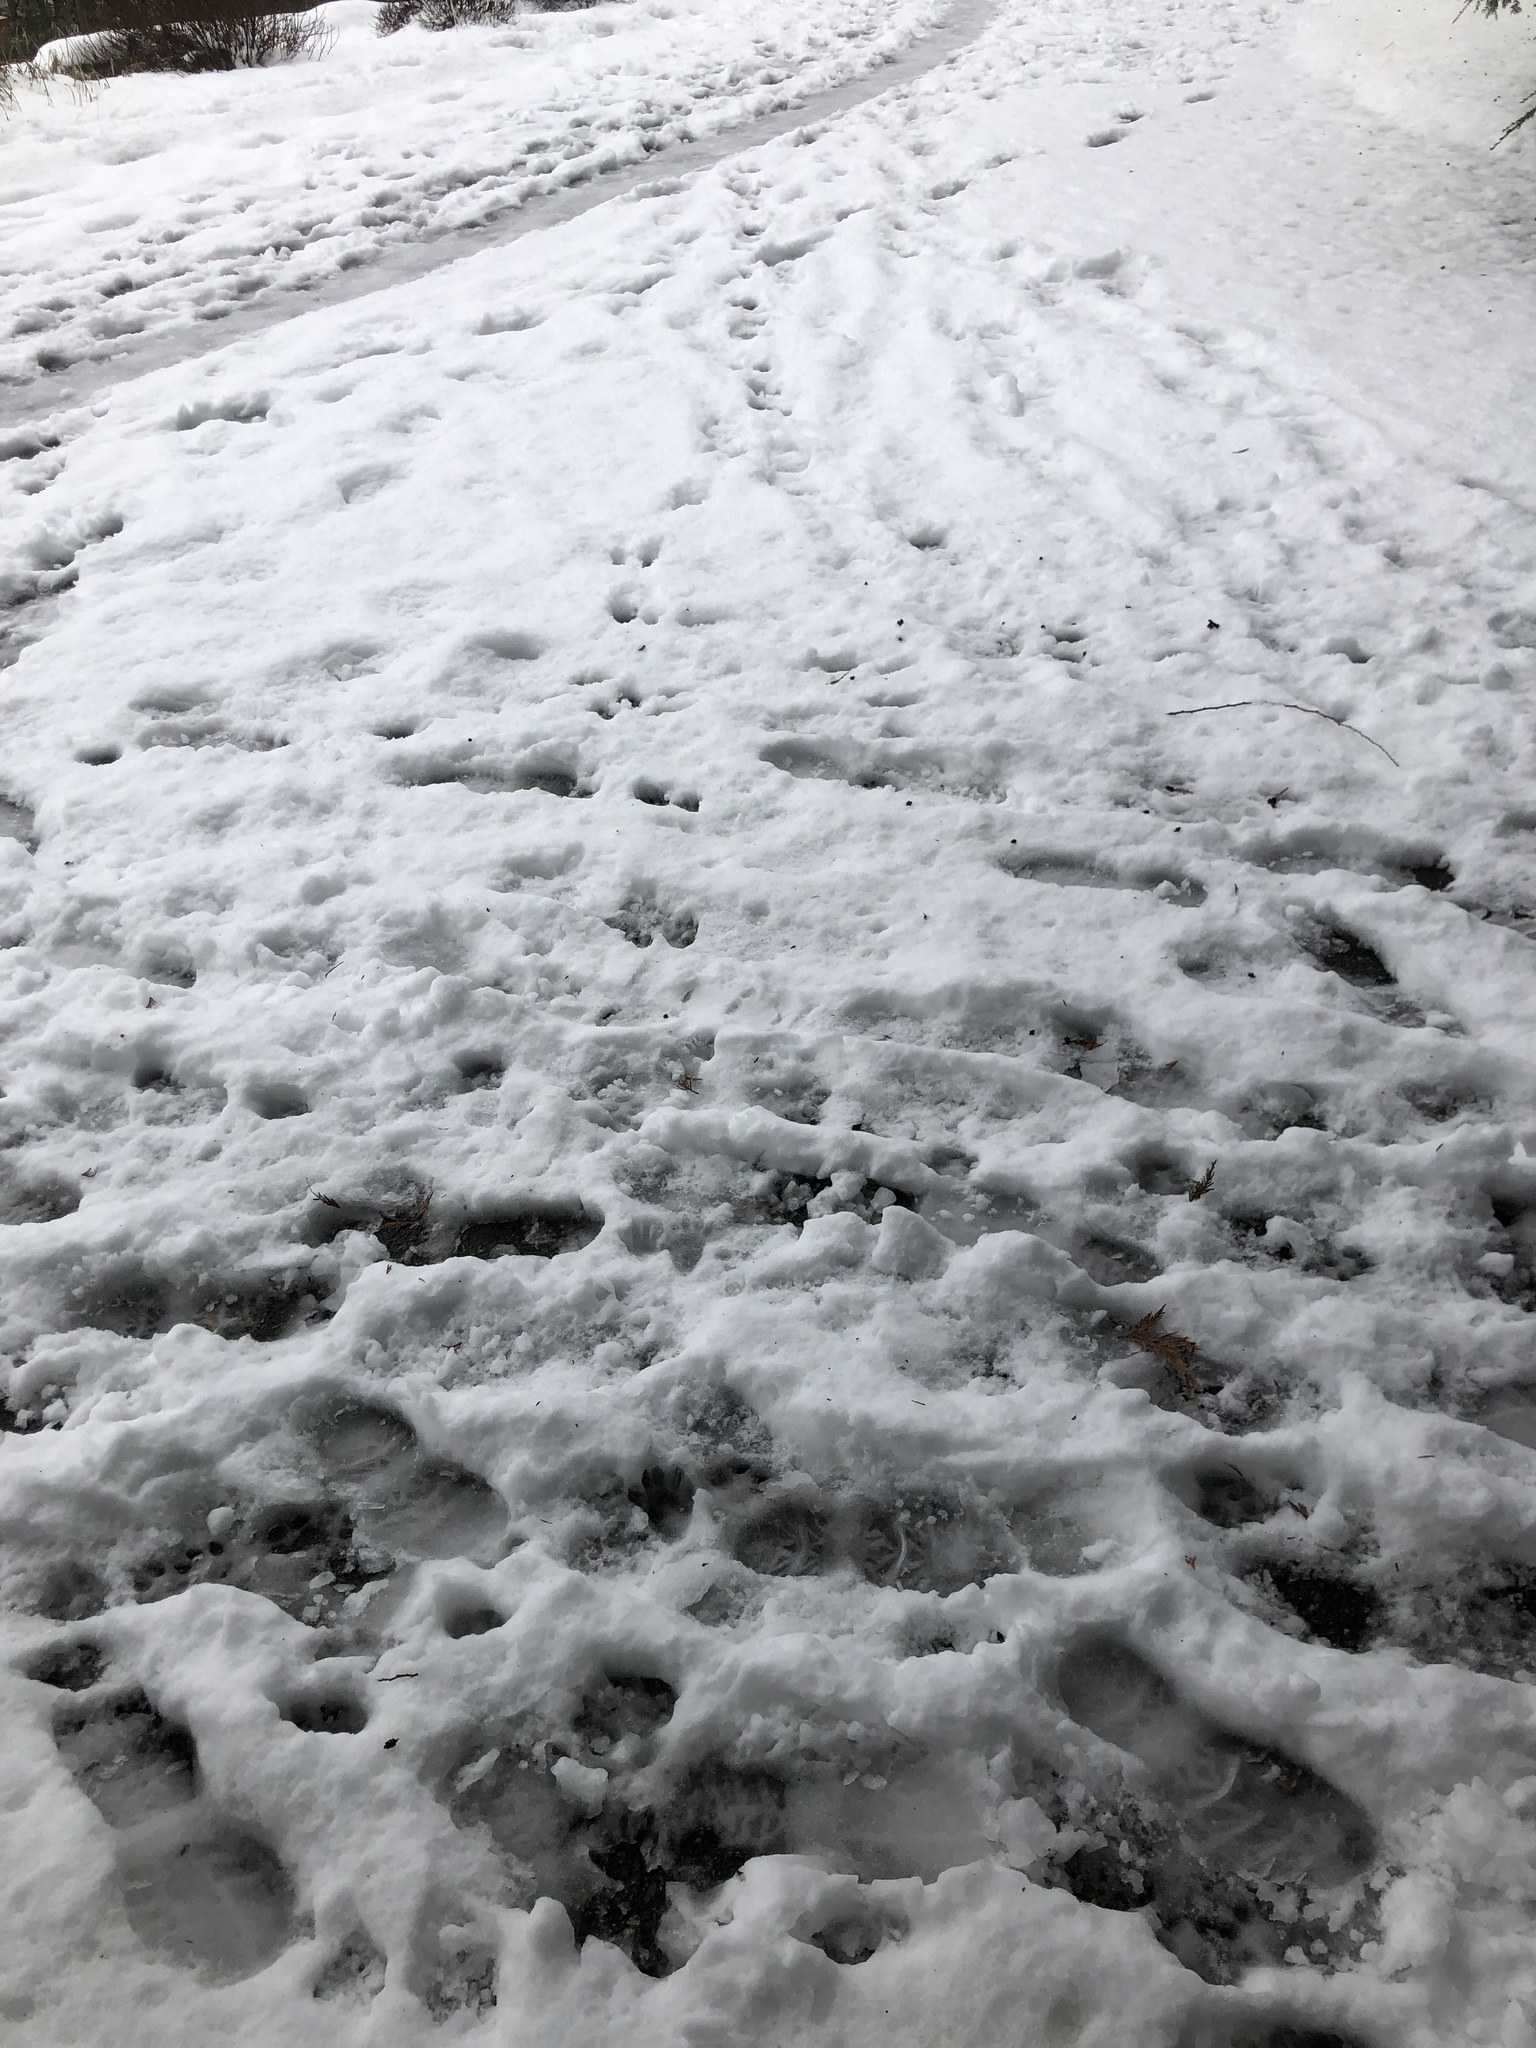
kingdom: Animalia
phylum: Chordata
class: Mammalia
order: Carnivora
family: Procyonidae
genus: Procyon
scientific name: Procyon lotor
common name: Raccoon
